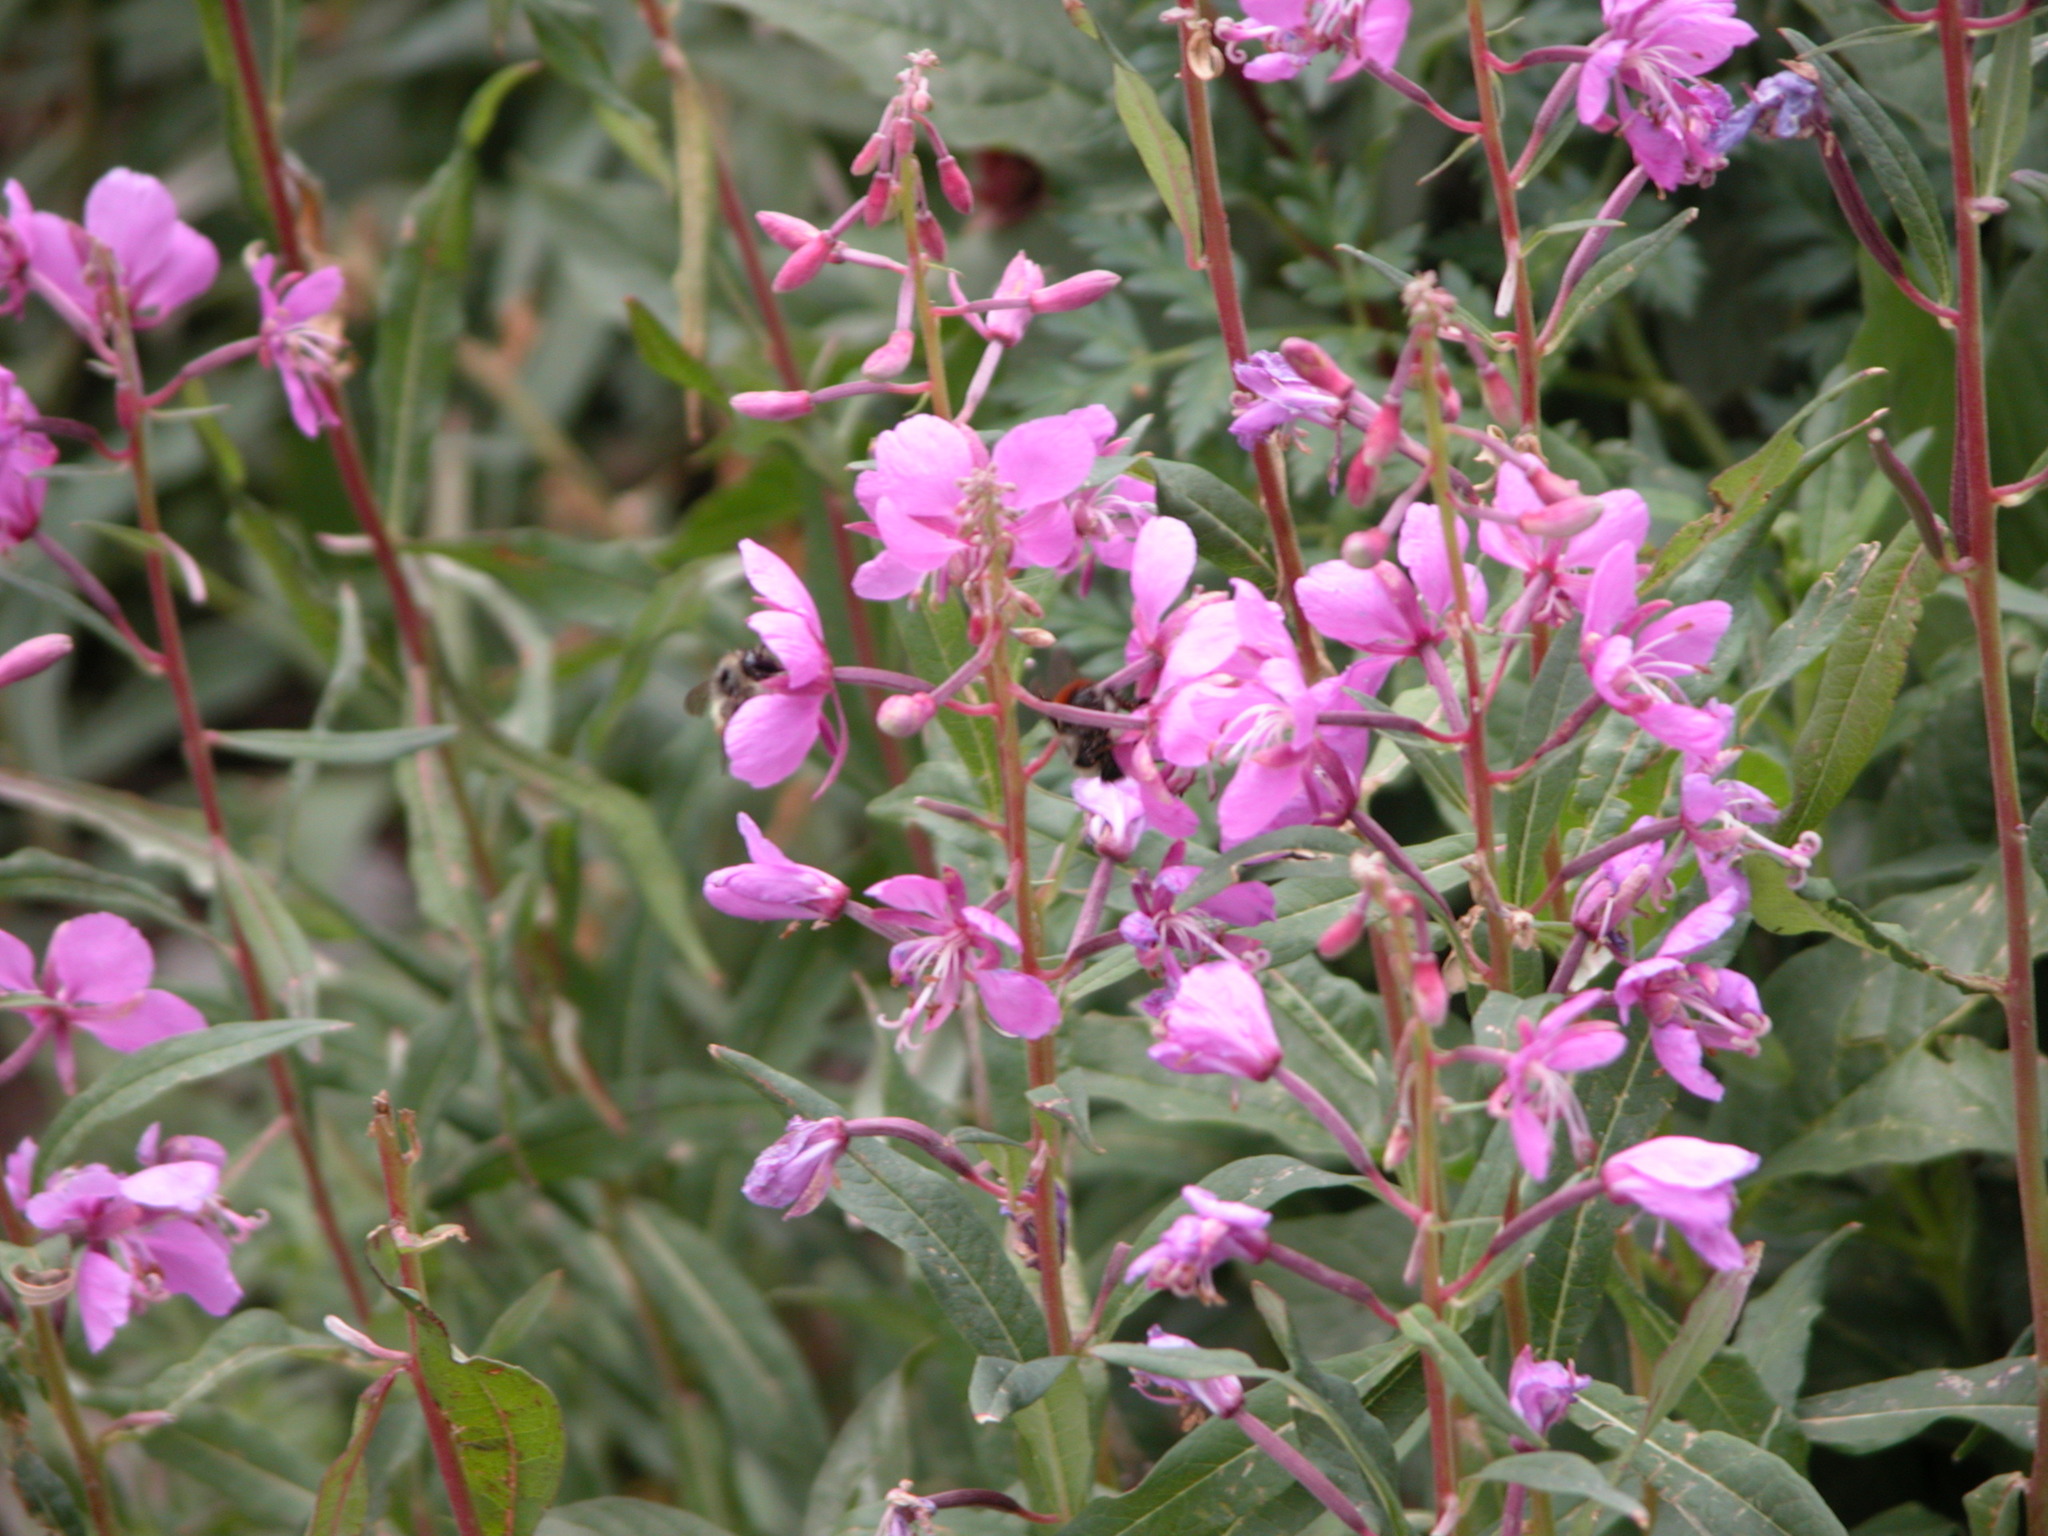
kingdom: Plantae
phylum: Tracheophyta
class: Magnoliopsida
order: Myrtales
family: Onagraceae
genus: Chamaenerion
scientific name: Chamaenerion angustifolium
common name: Fireweed
